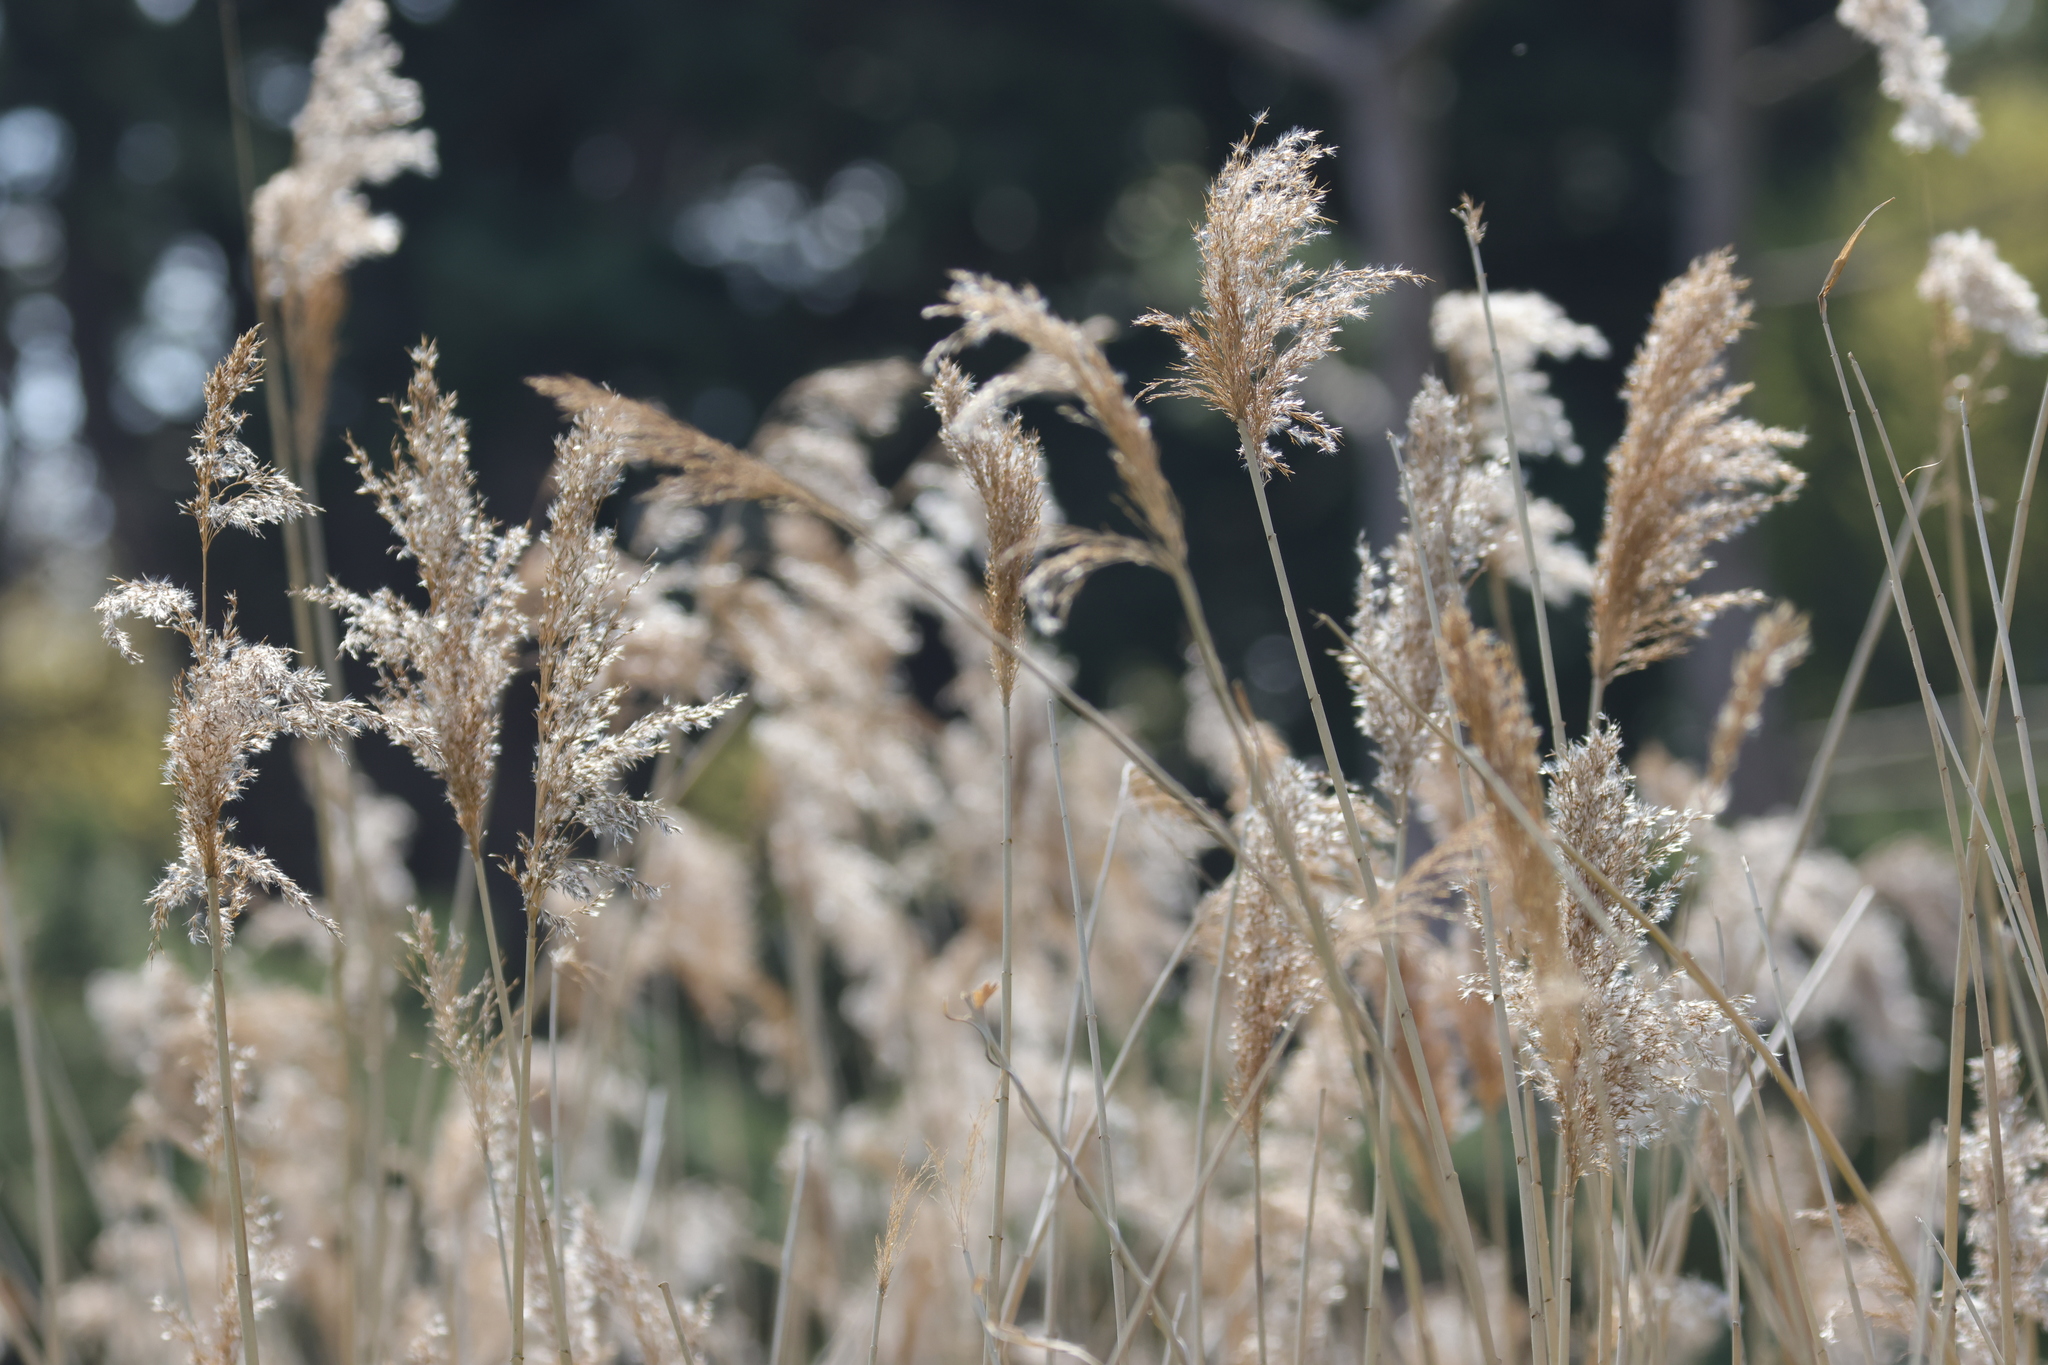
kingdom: Plantae
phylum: Tracheophyta
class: Liliopsida
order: Poales
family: Poaceae
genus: Phragmites
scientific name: Phragmites australis
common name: Common reed
